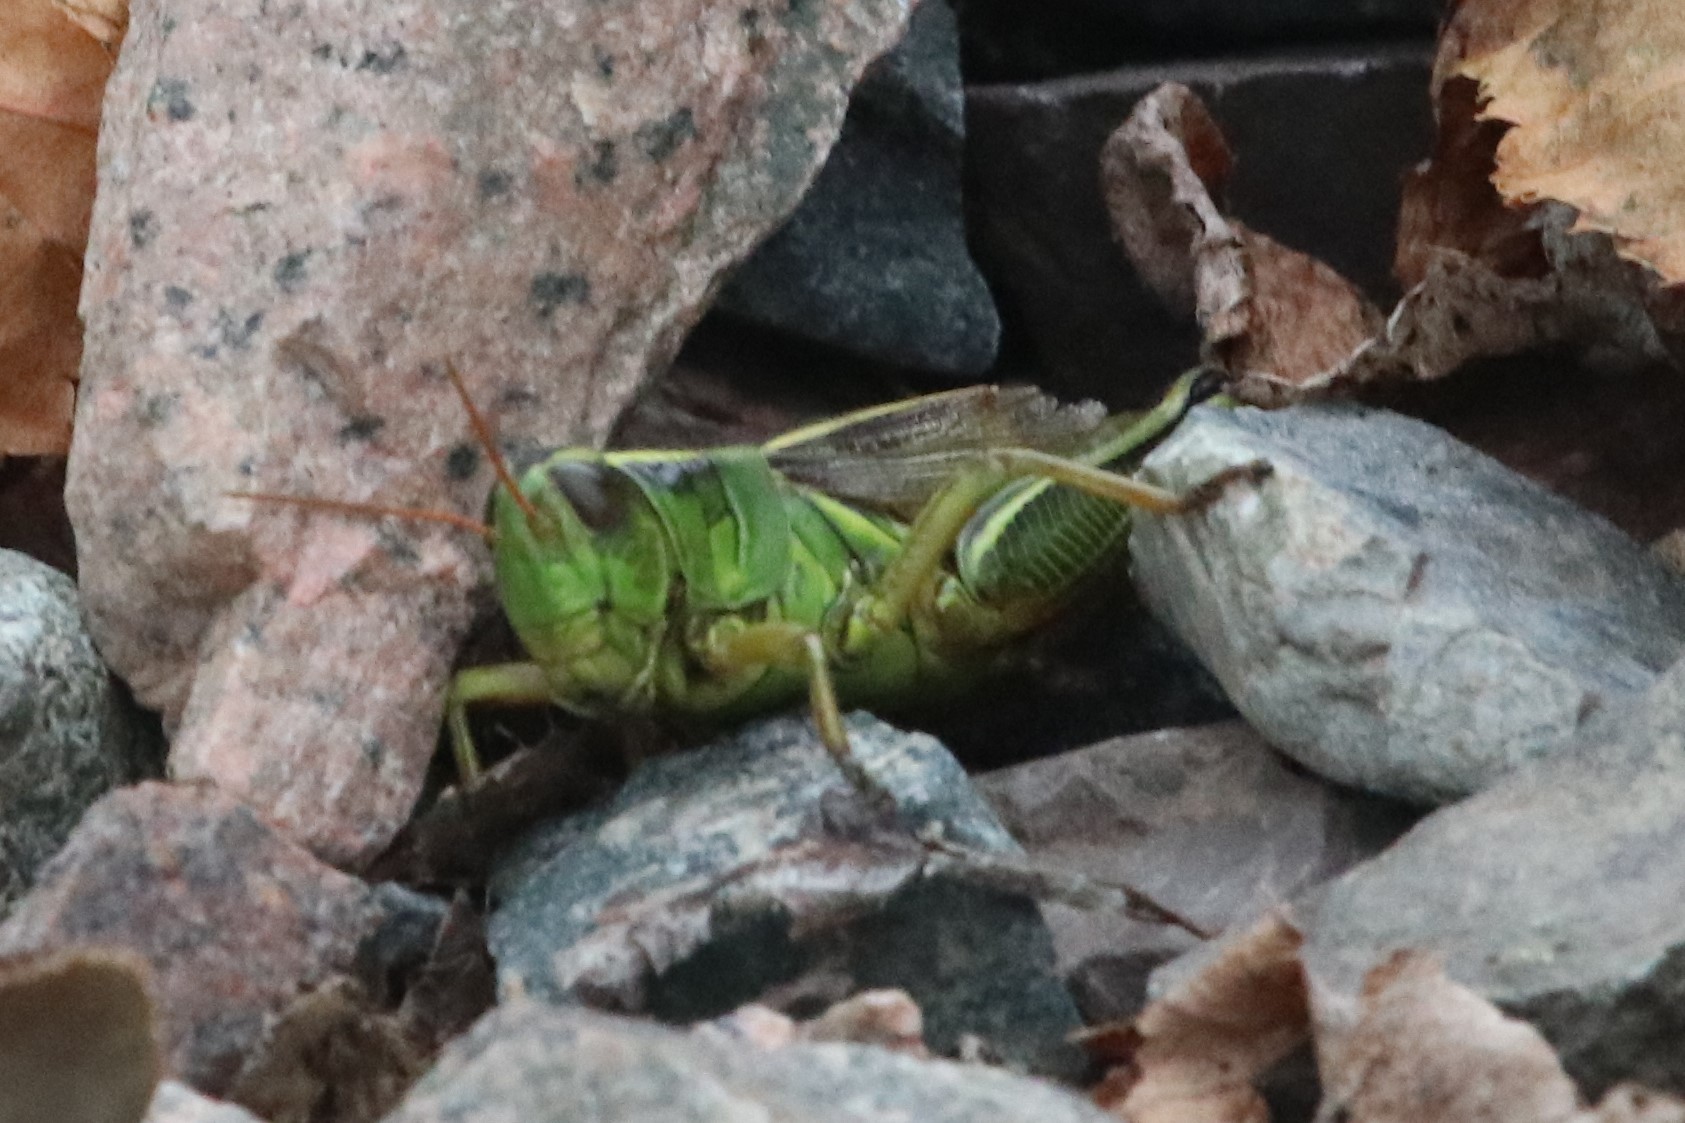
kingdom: Animalia
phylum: Arthropoda
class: Insecta
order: Orthoptera
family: Acrididae
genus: Melanoplus
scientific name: Melanoplus bivittatus
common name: Two-striped grasshopper
